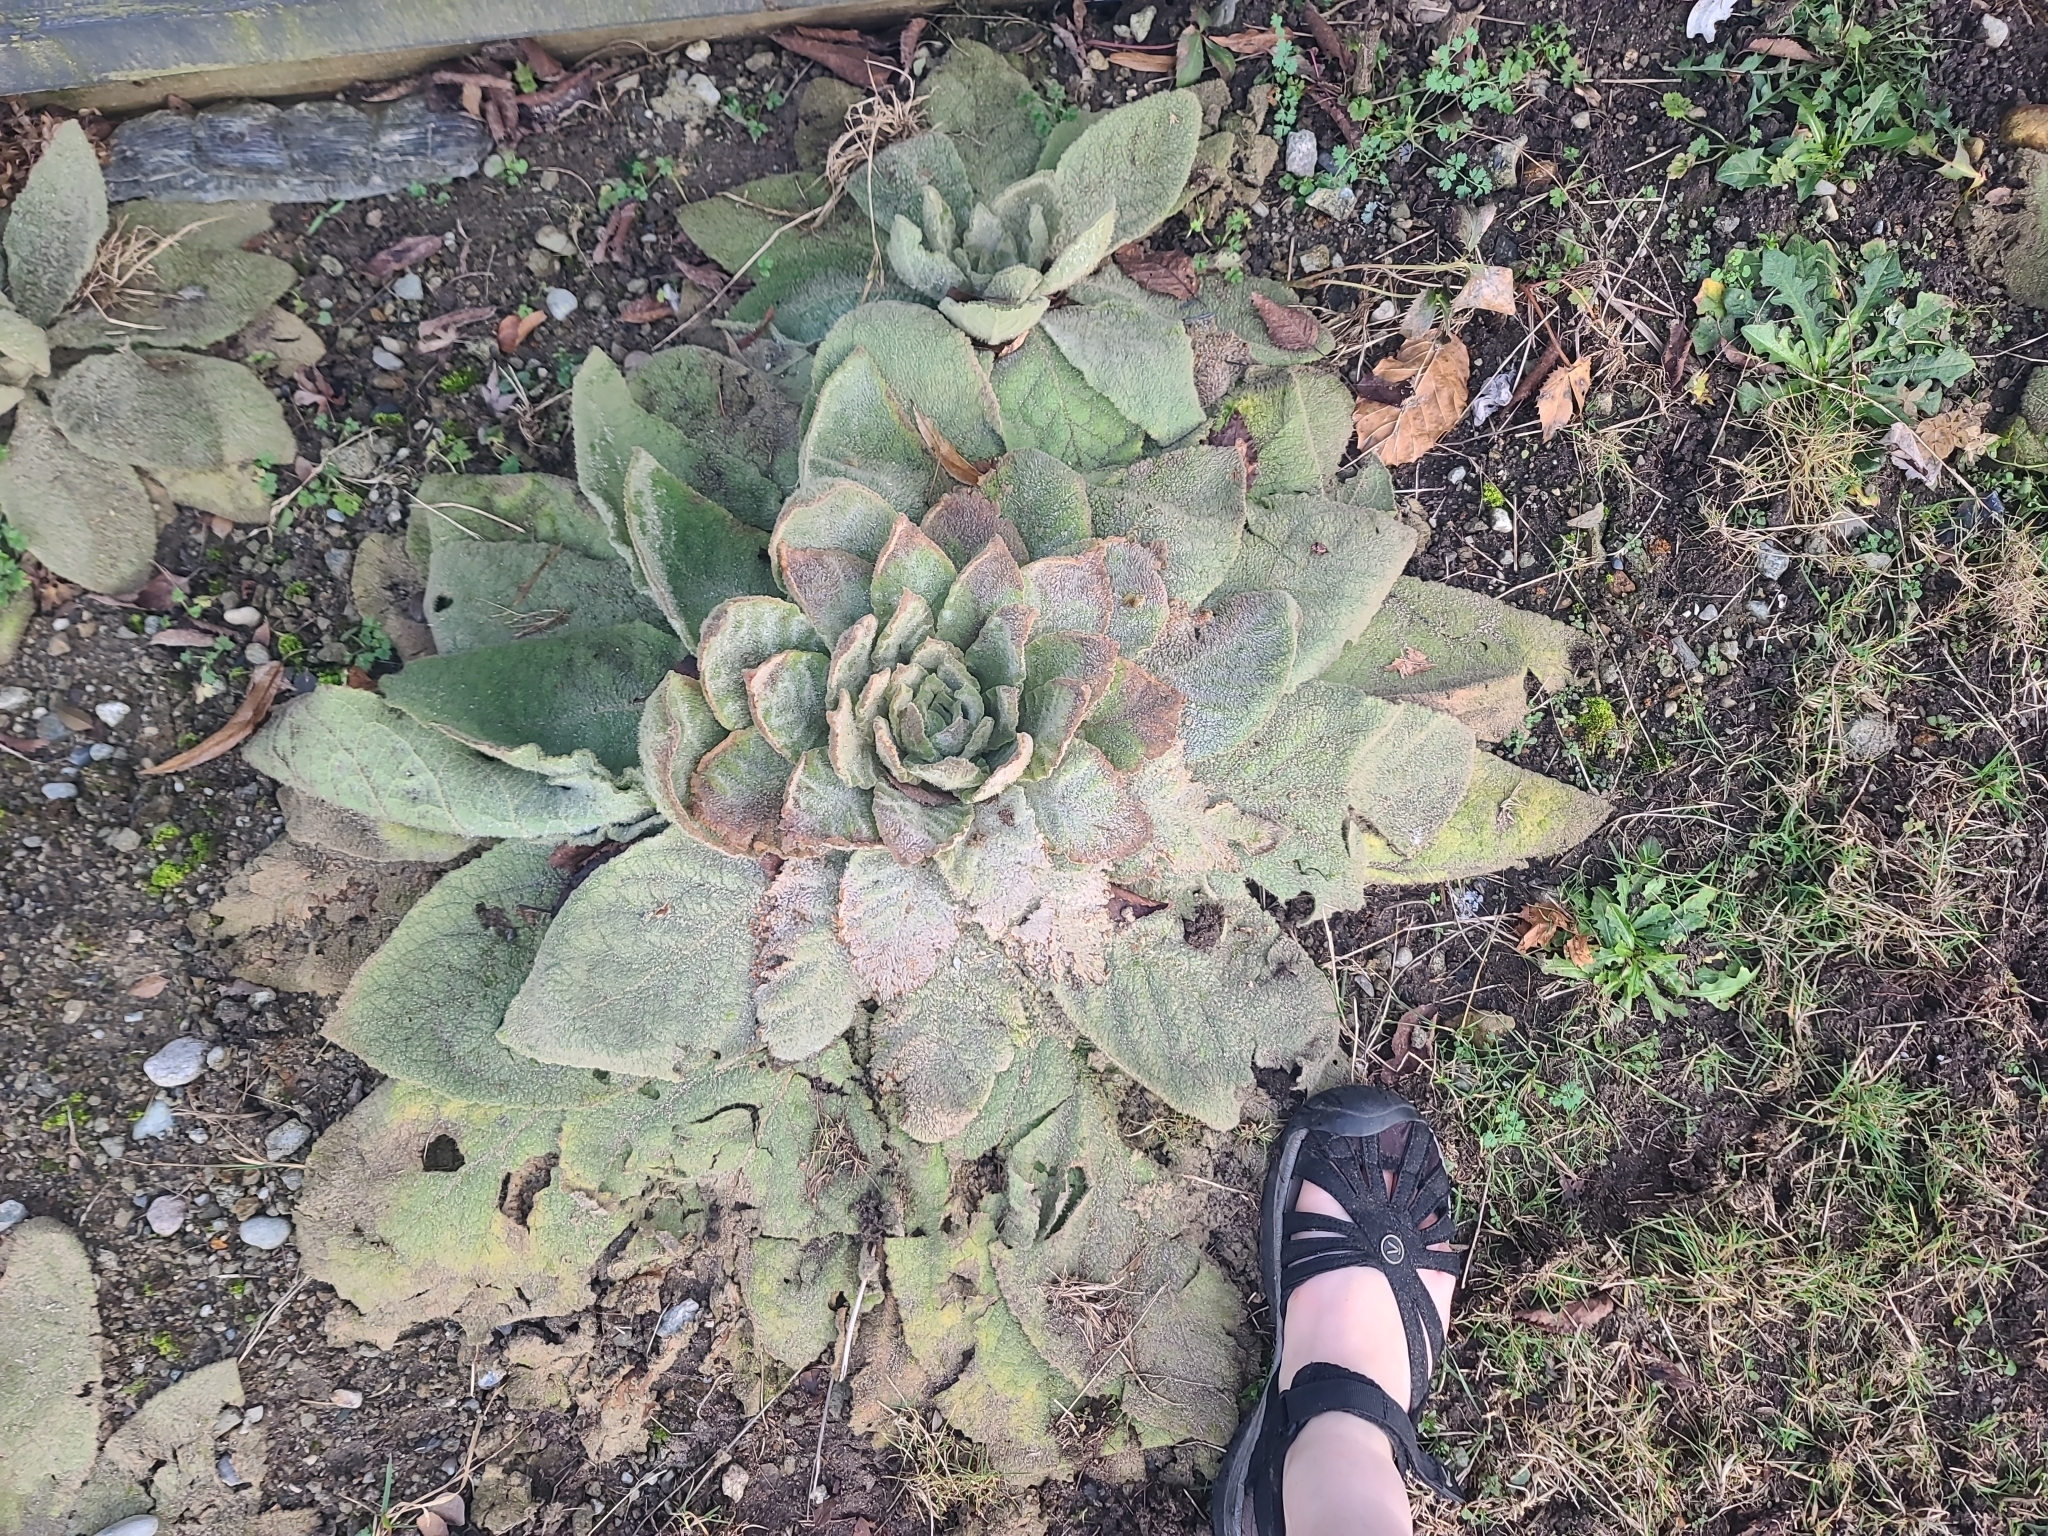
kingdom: Plantae
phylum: Tracheophyta
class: Magnoliopsida
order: Lamiales
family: Scrophulariaceae
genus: Verbascum
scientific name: Verbascum thapsus
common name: Common mullein
